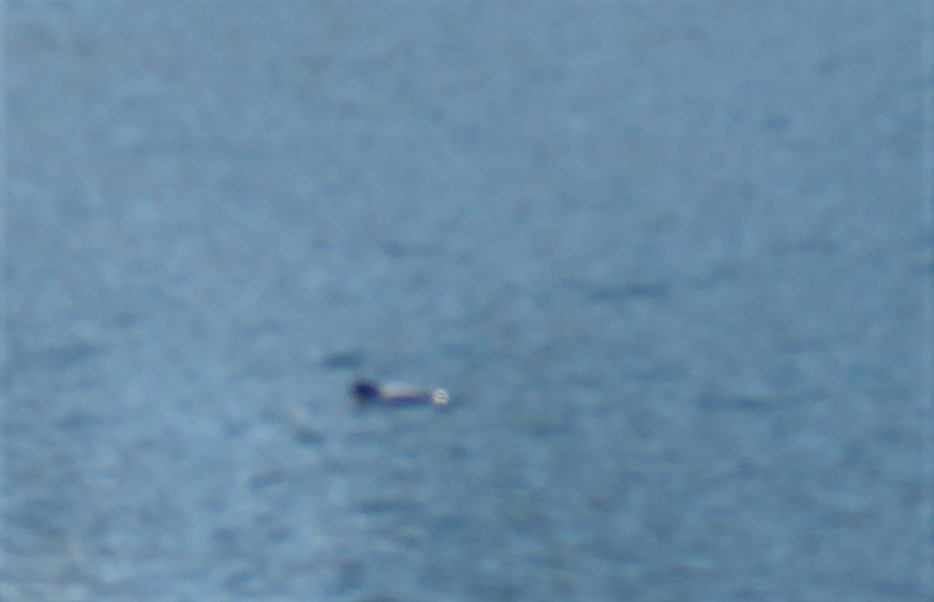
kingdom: Animalia
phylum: Chordata
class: Mammalia
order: Cetacea
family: Delphinidae
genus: Cephalorhynchus
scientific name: Cephalorhynchus hectori
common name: Hector's dolphin
